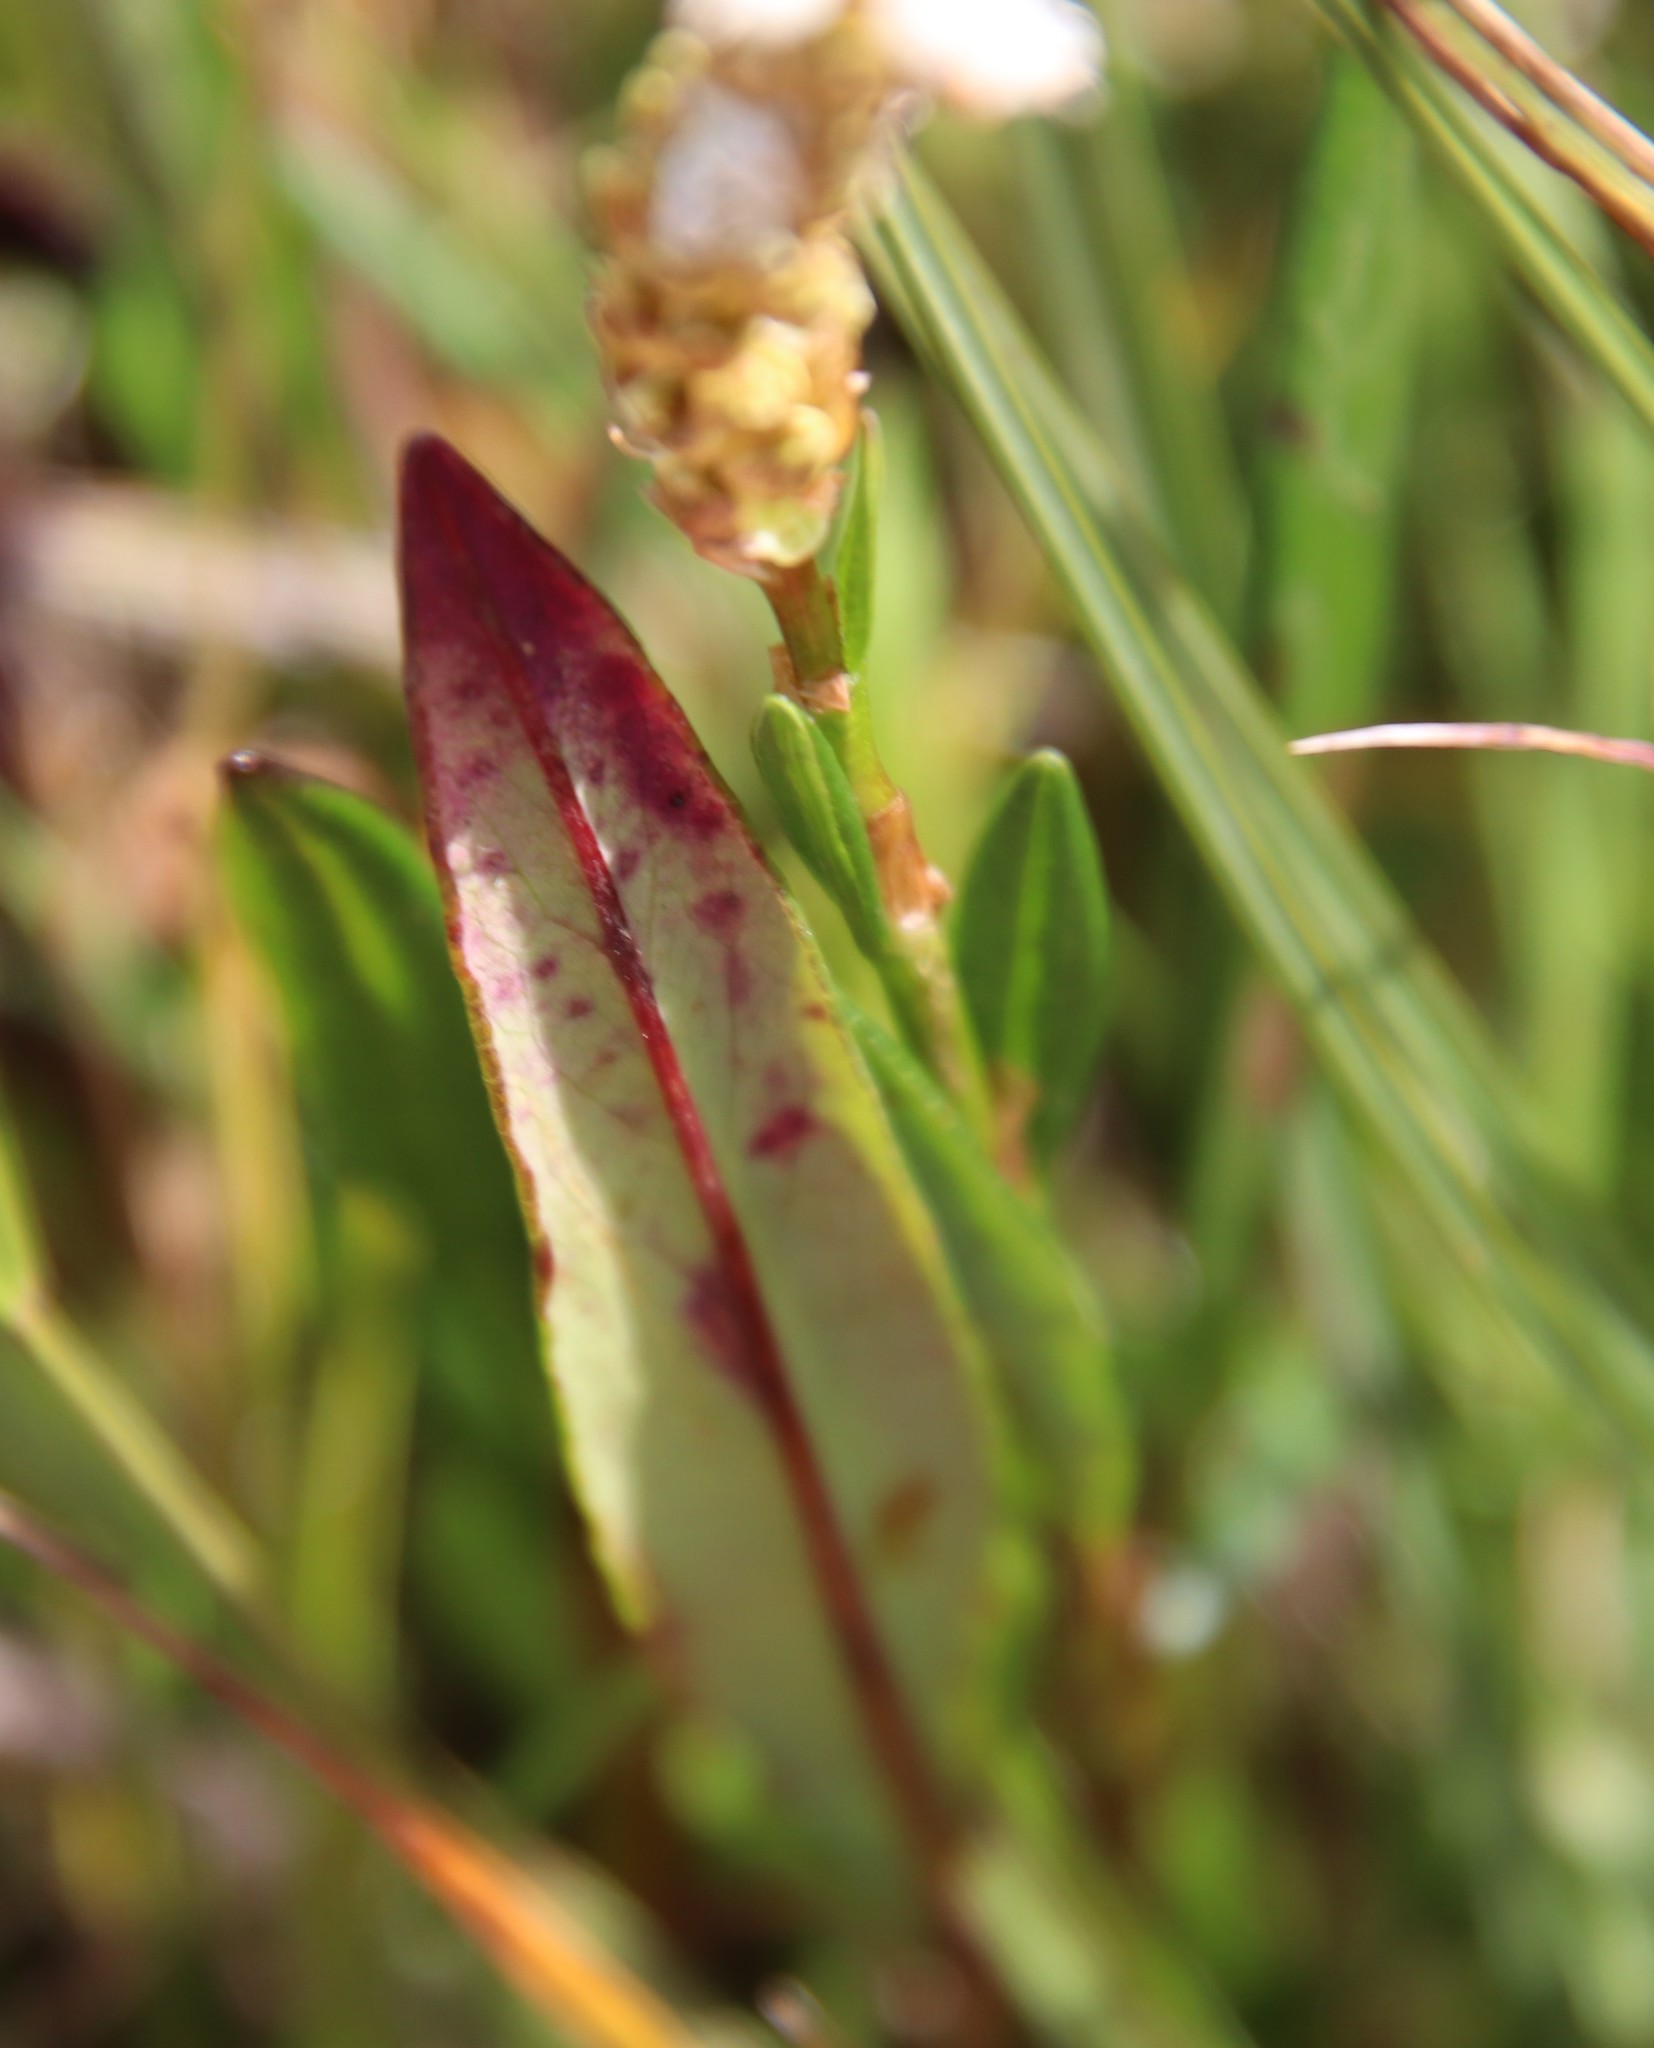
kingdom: Plantae
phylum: Tracheophyta
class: Magnoliopsida
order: Caryophyllales
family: Polygonaceae
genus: Bistorta
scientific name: Bistorta vivipara
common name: Alpine bistort
